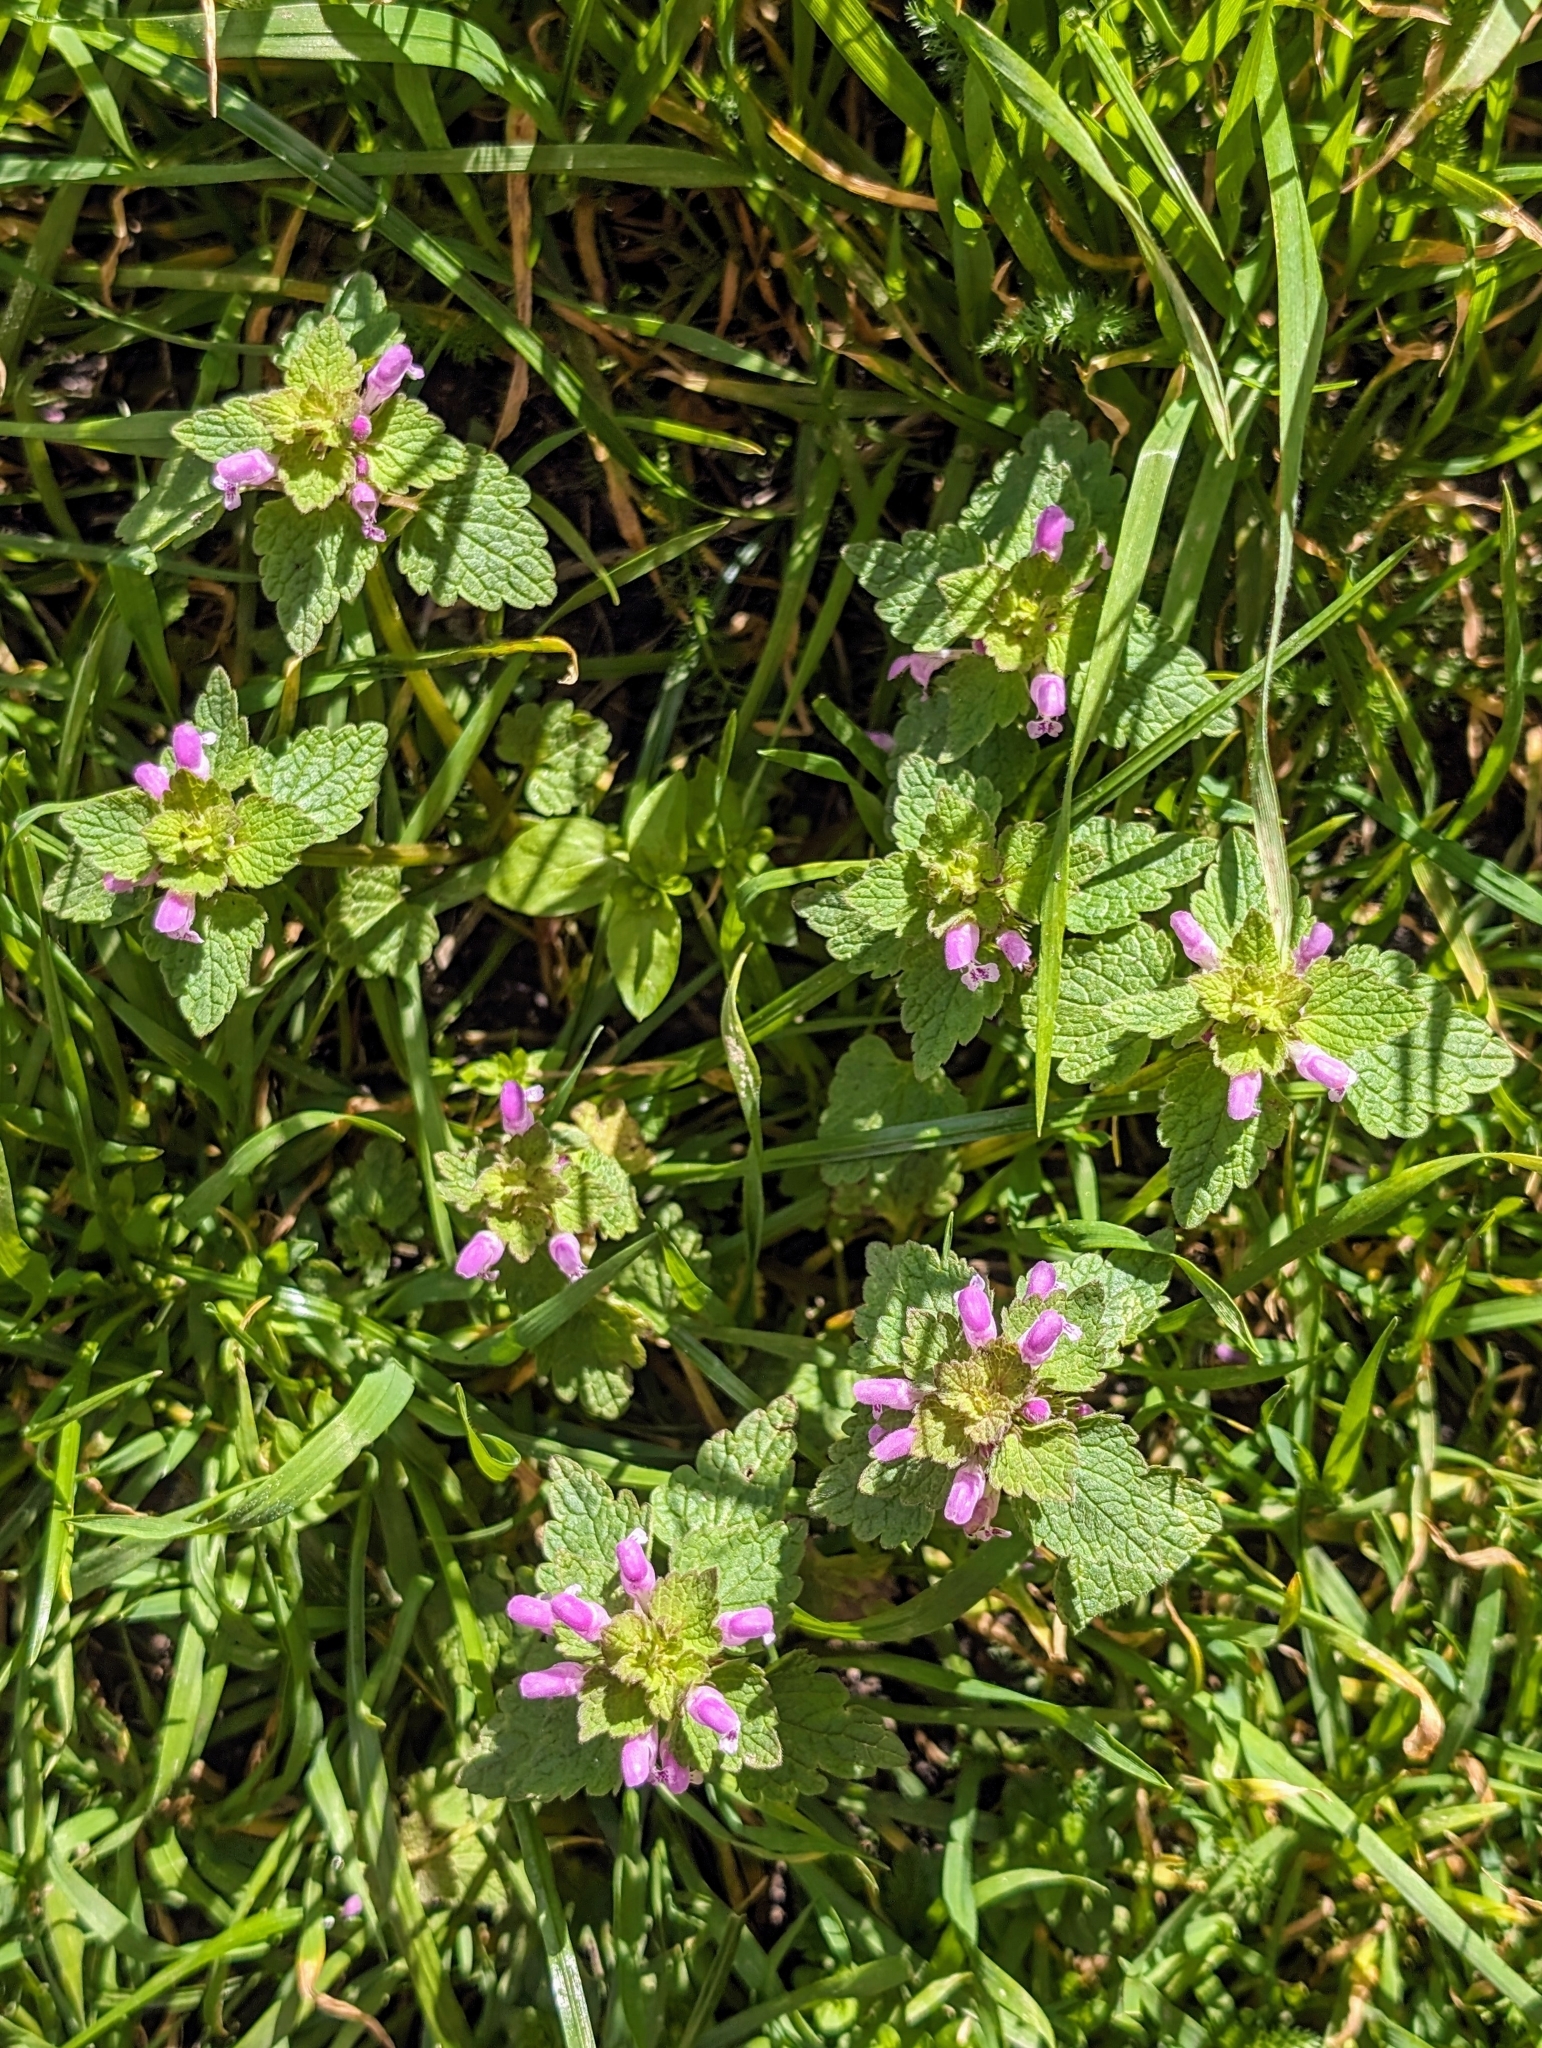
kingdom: Plantae
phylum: Tracheophyta
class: Magnoliopsida
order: Lamiales
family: Lamiaceae
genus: Lamium
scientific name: Lamium purpureum
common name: Red dead-nettle
